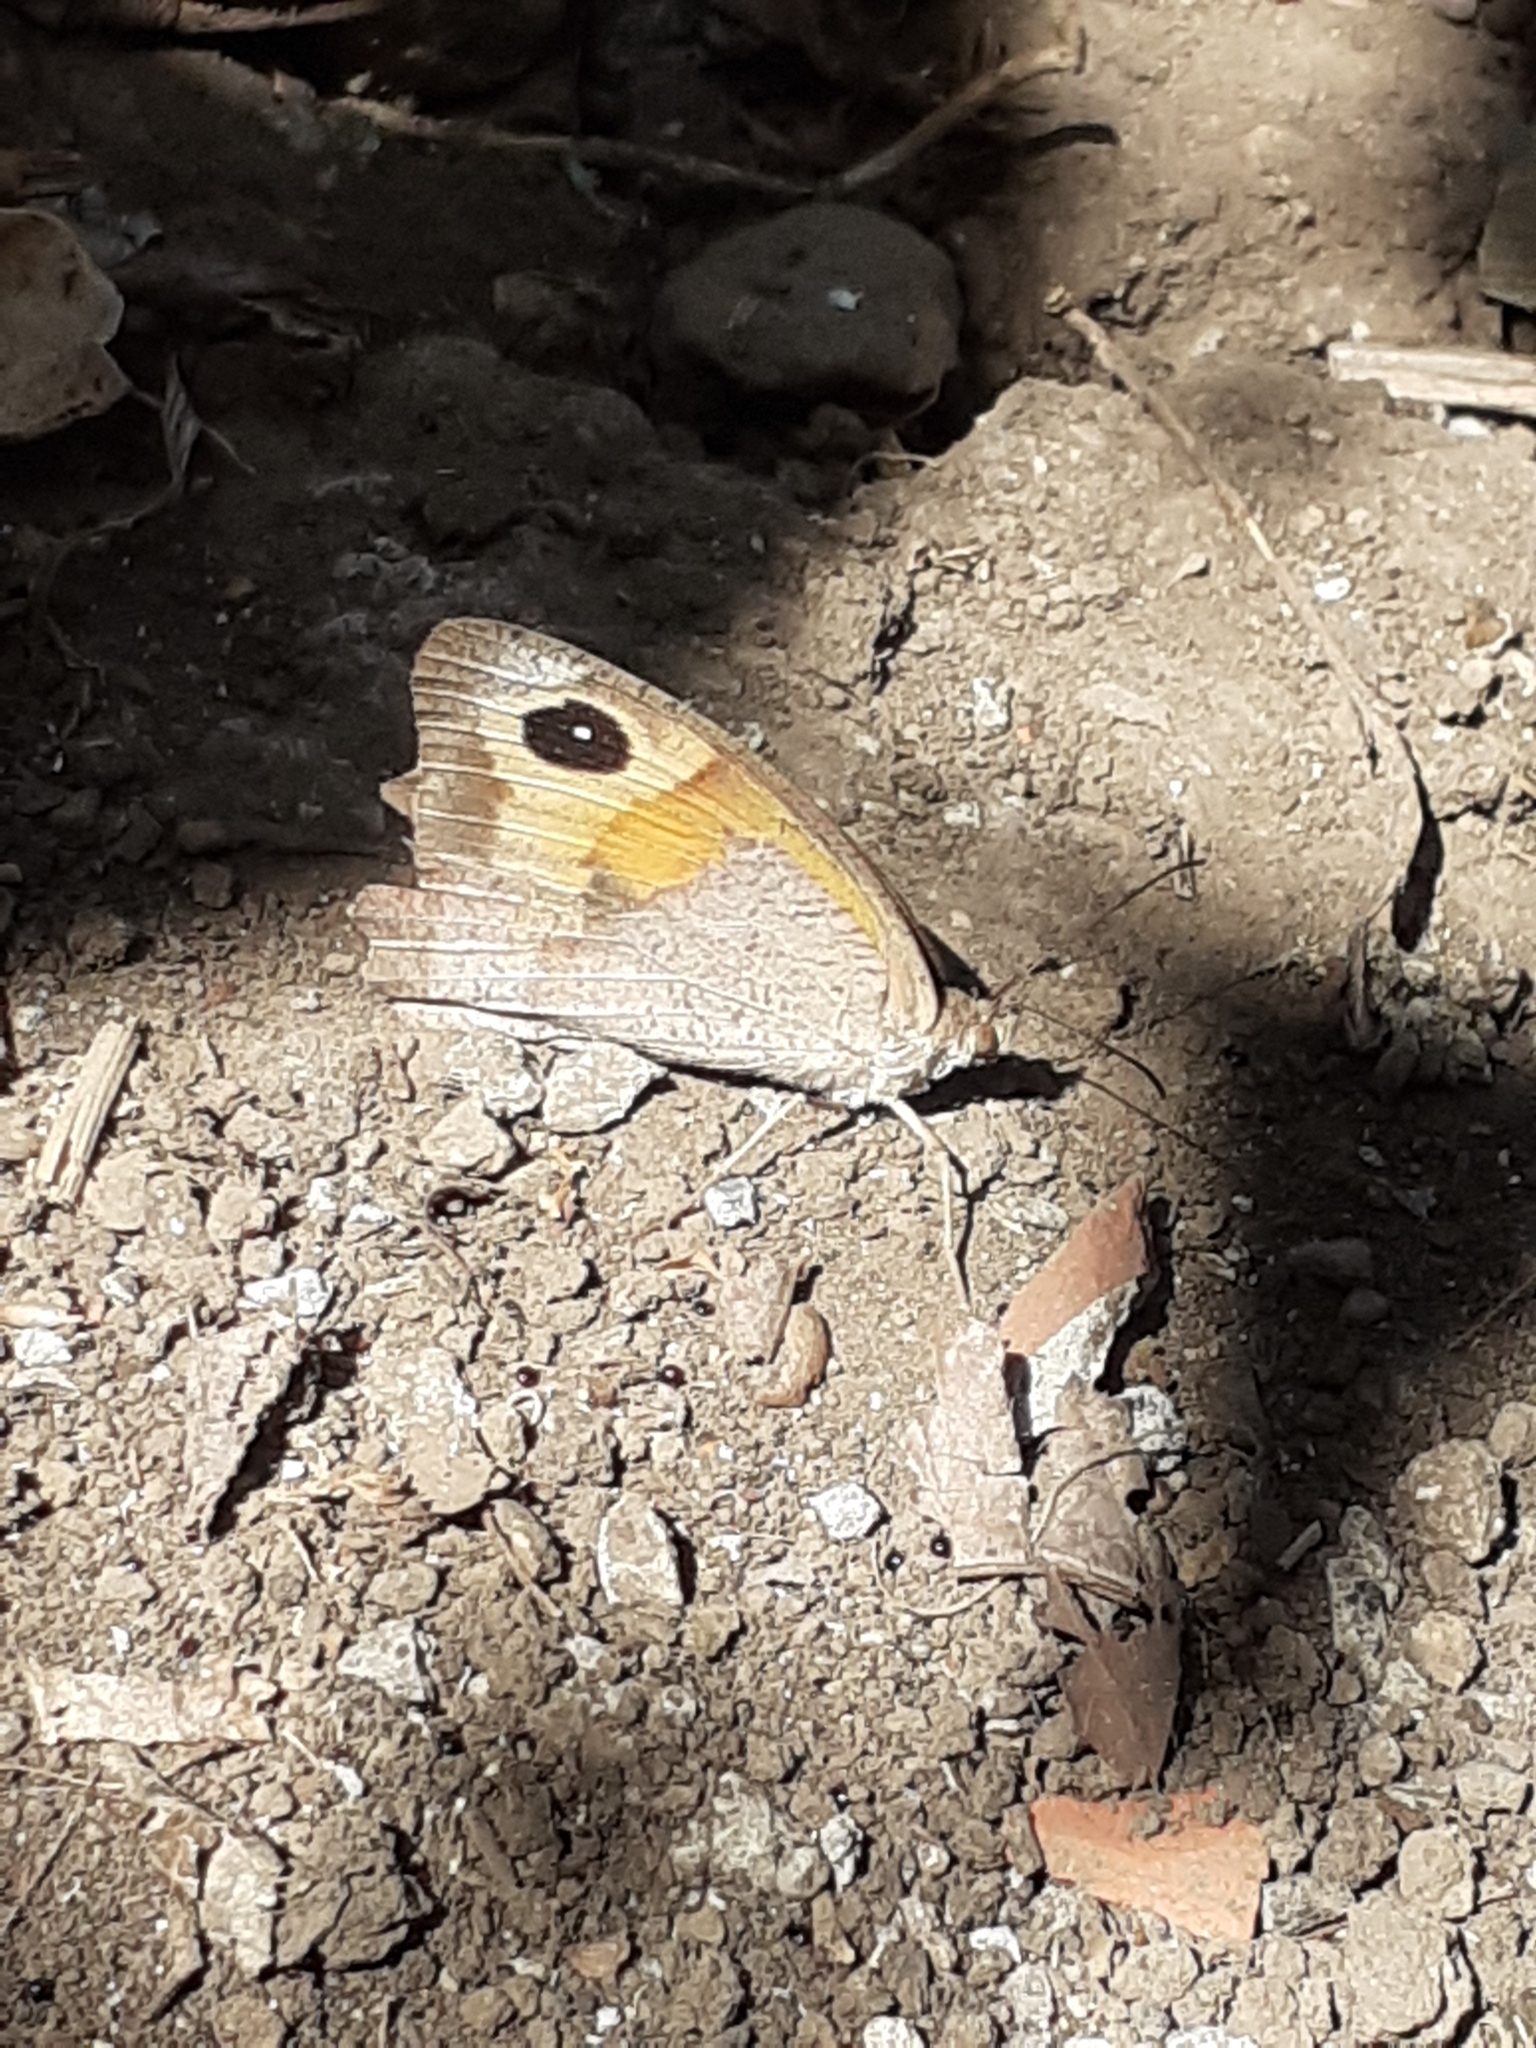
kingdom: Animalia
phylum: Arthropoda
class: Insecta
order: Lepidoptera
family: Nymphalidae
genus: Maniola
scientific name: Maniola jurtina
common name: Meadow brown
